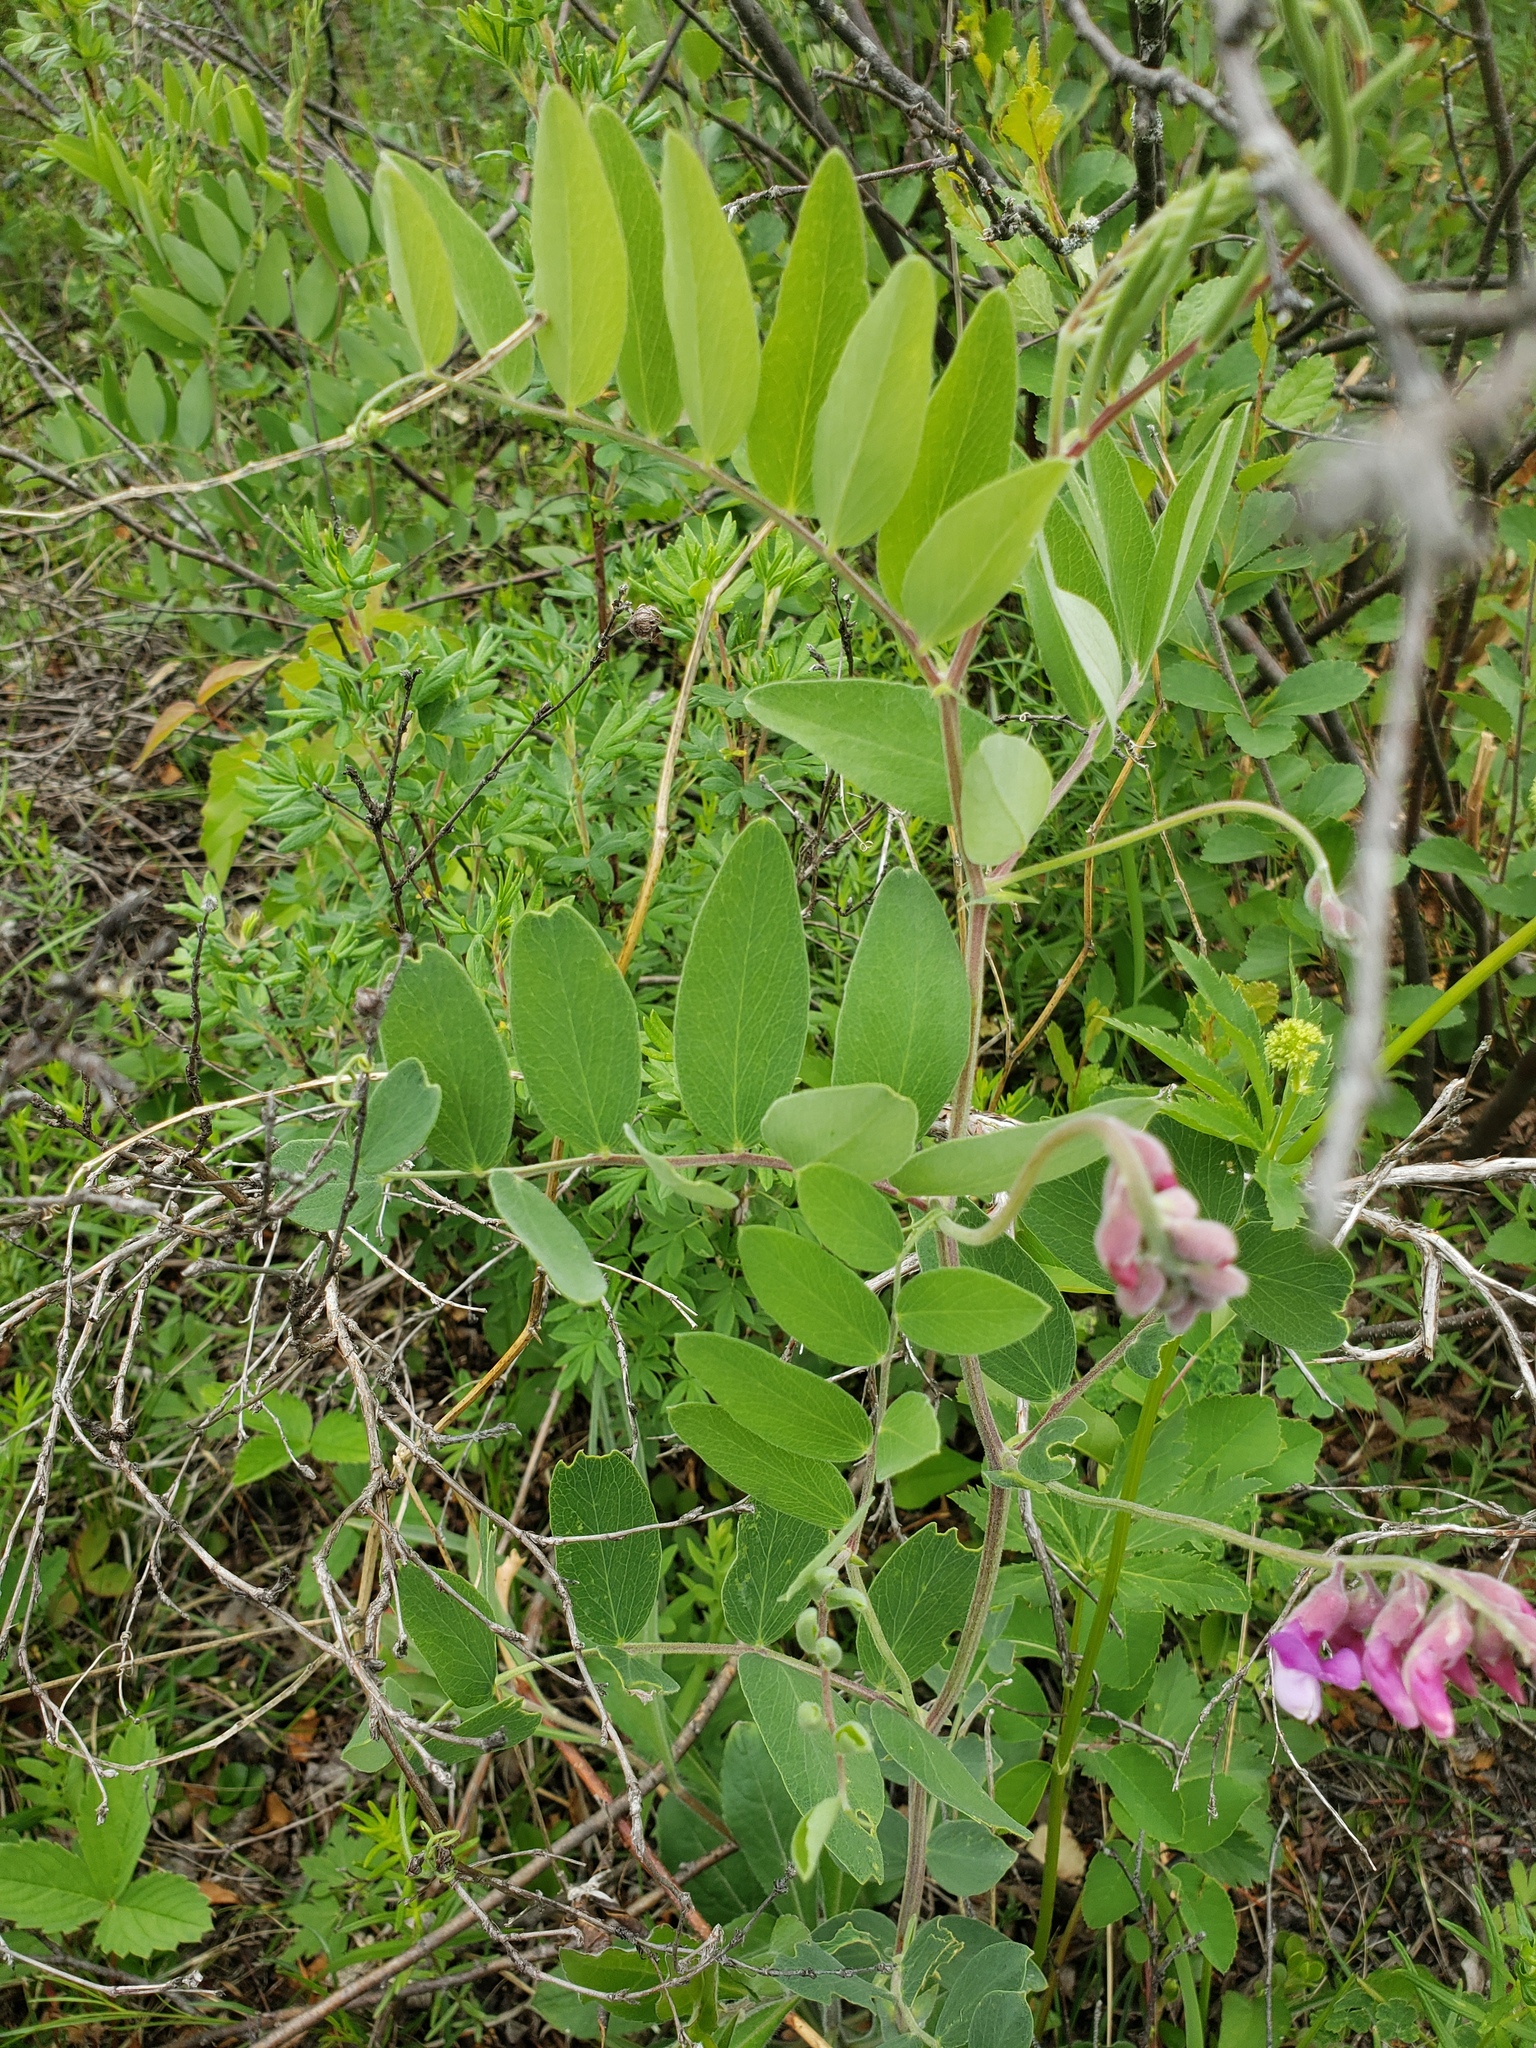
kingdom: Plantae
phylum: Tracheophyta
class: Magnoliopsida
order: Fabales
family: Fabaceae
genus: Lathyrus
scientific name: Lathyrus venosus
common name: Forest-pea
